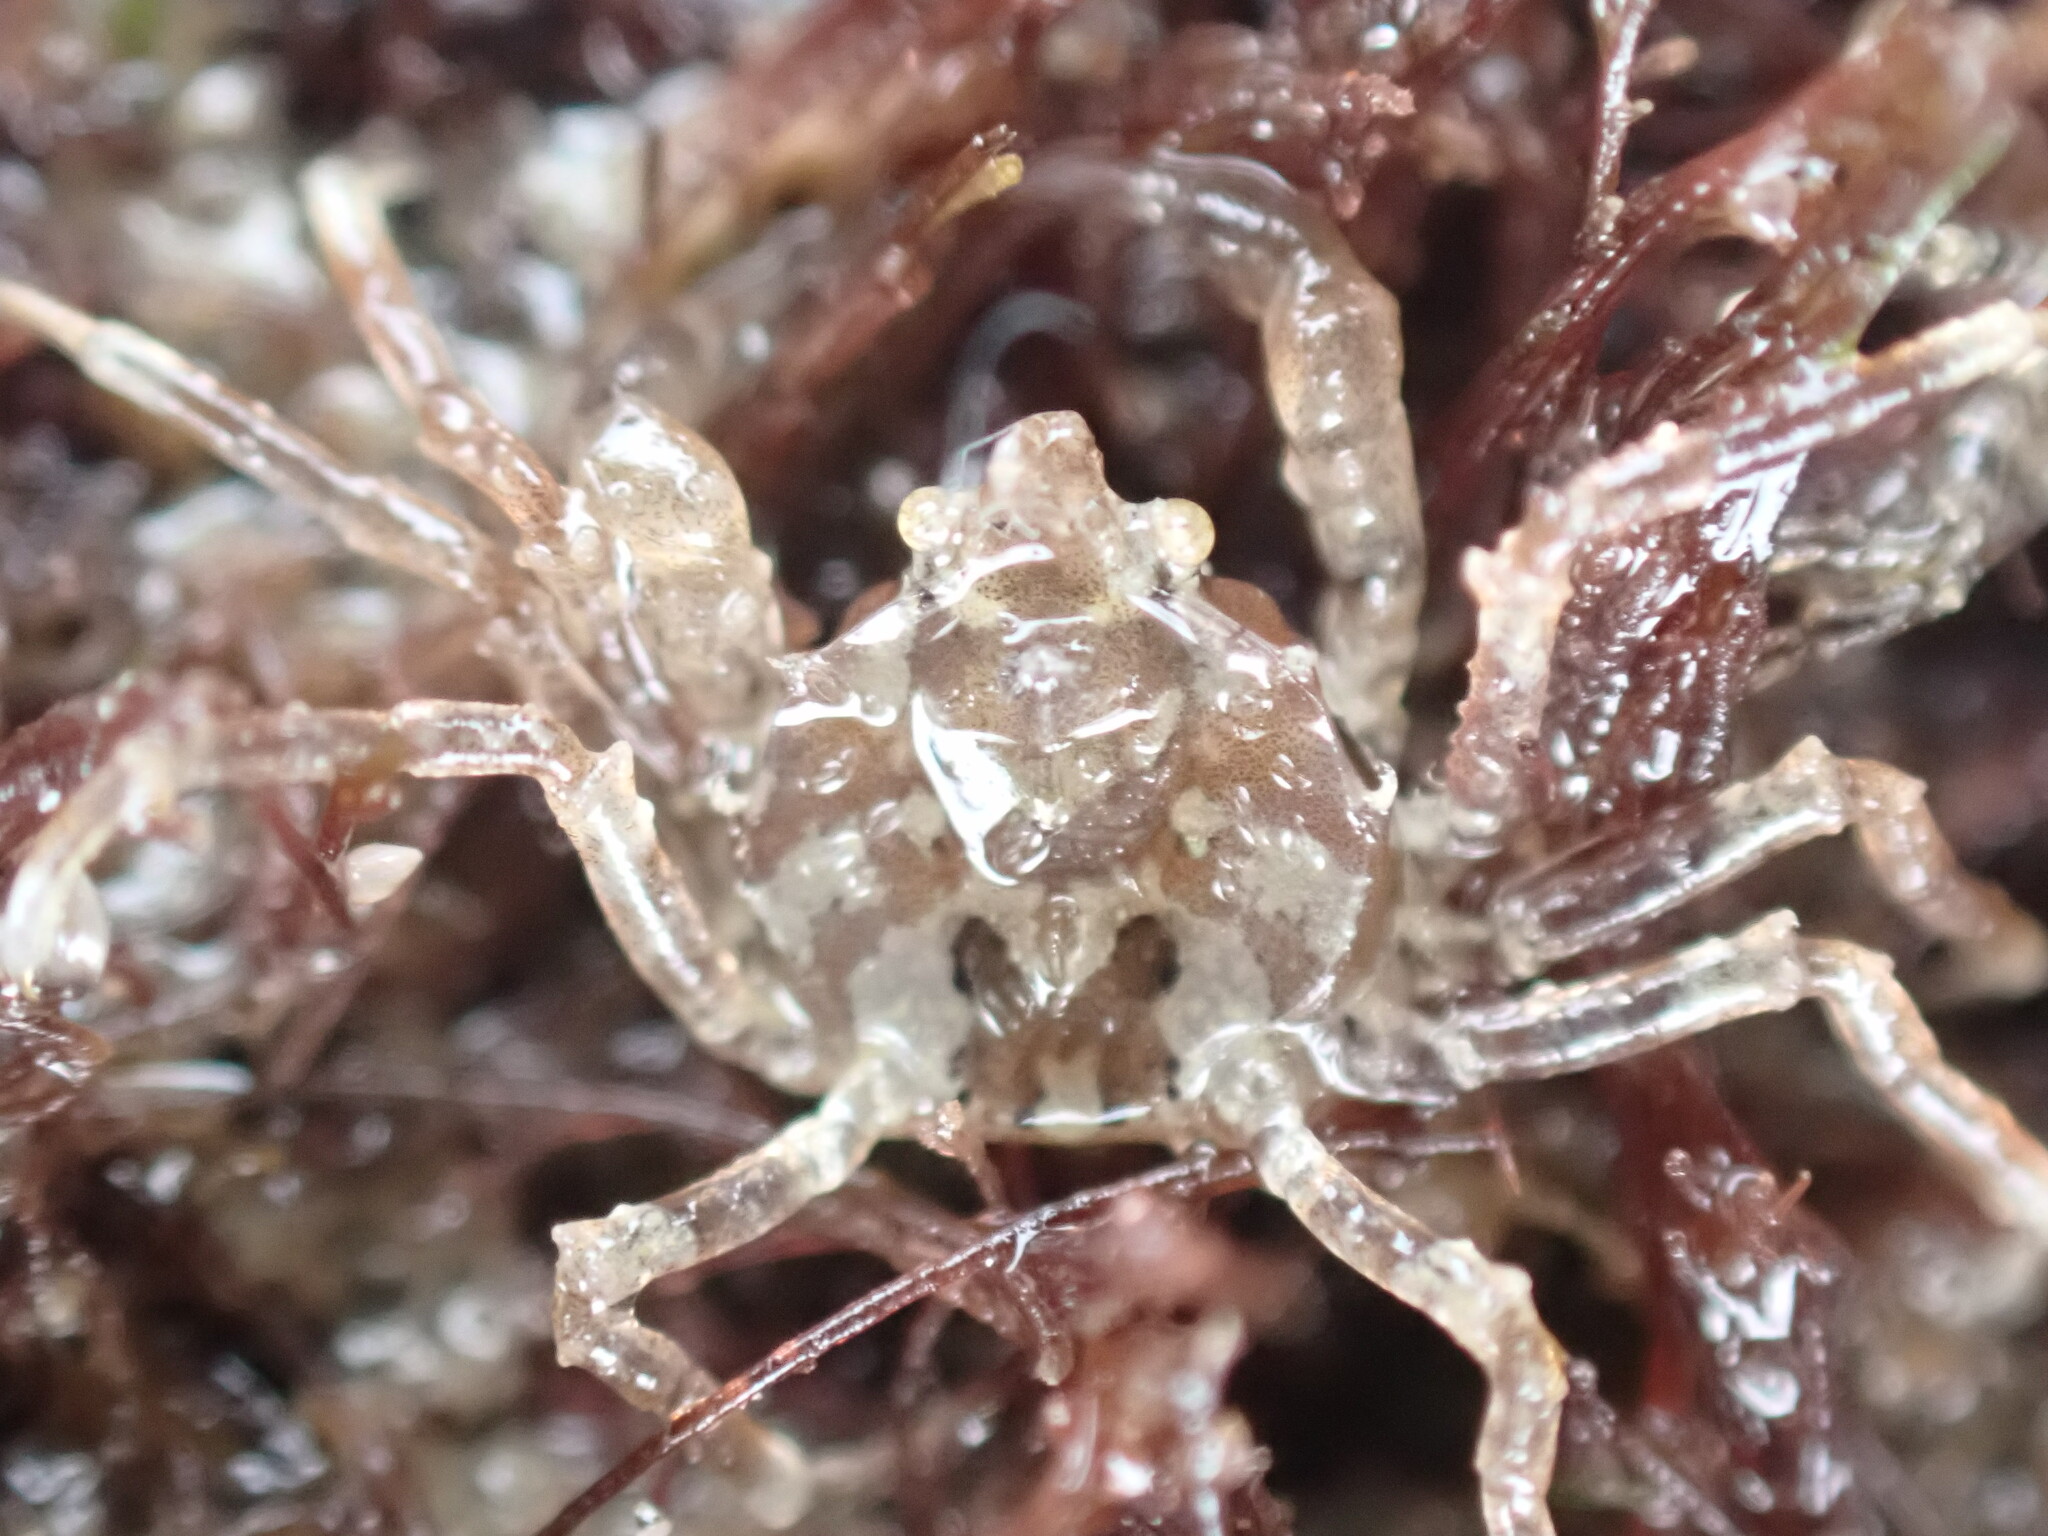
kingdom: Animalia
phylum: Arthropoda
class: Malacostraca
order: Decapoda
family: Hymenosomatidae
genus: Halicarcinus
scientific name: Halicarcinus cookii
